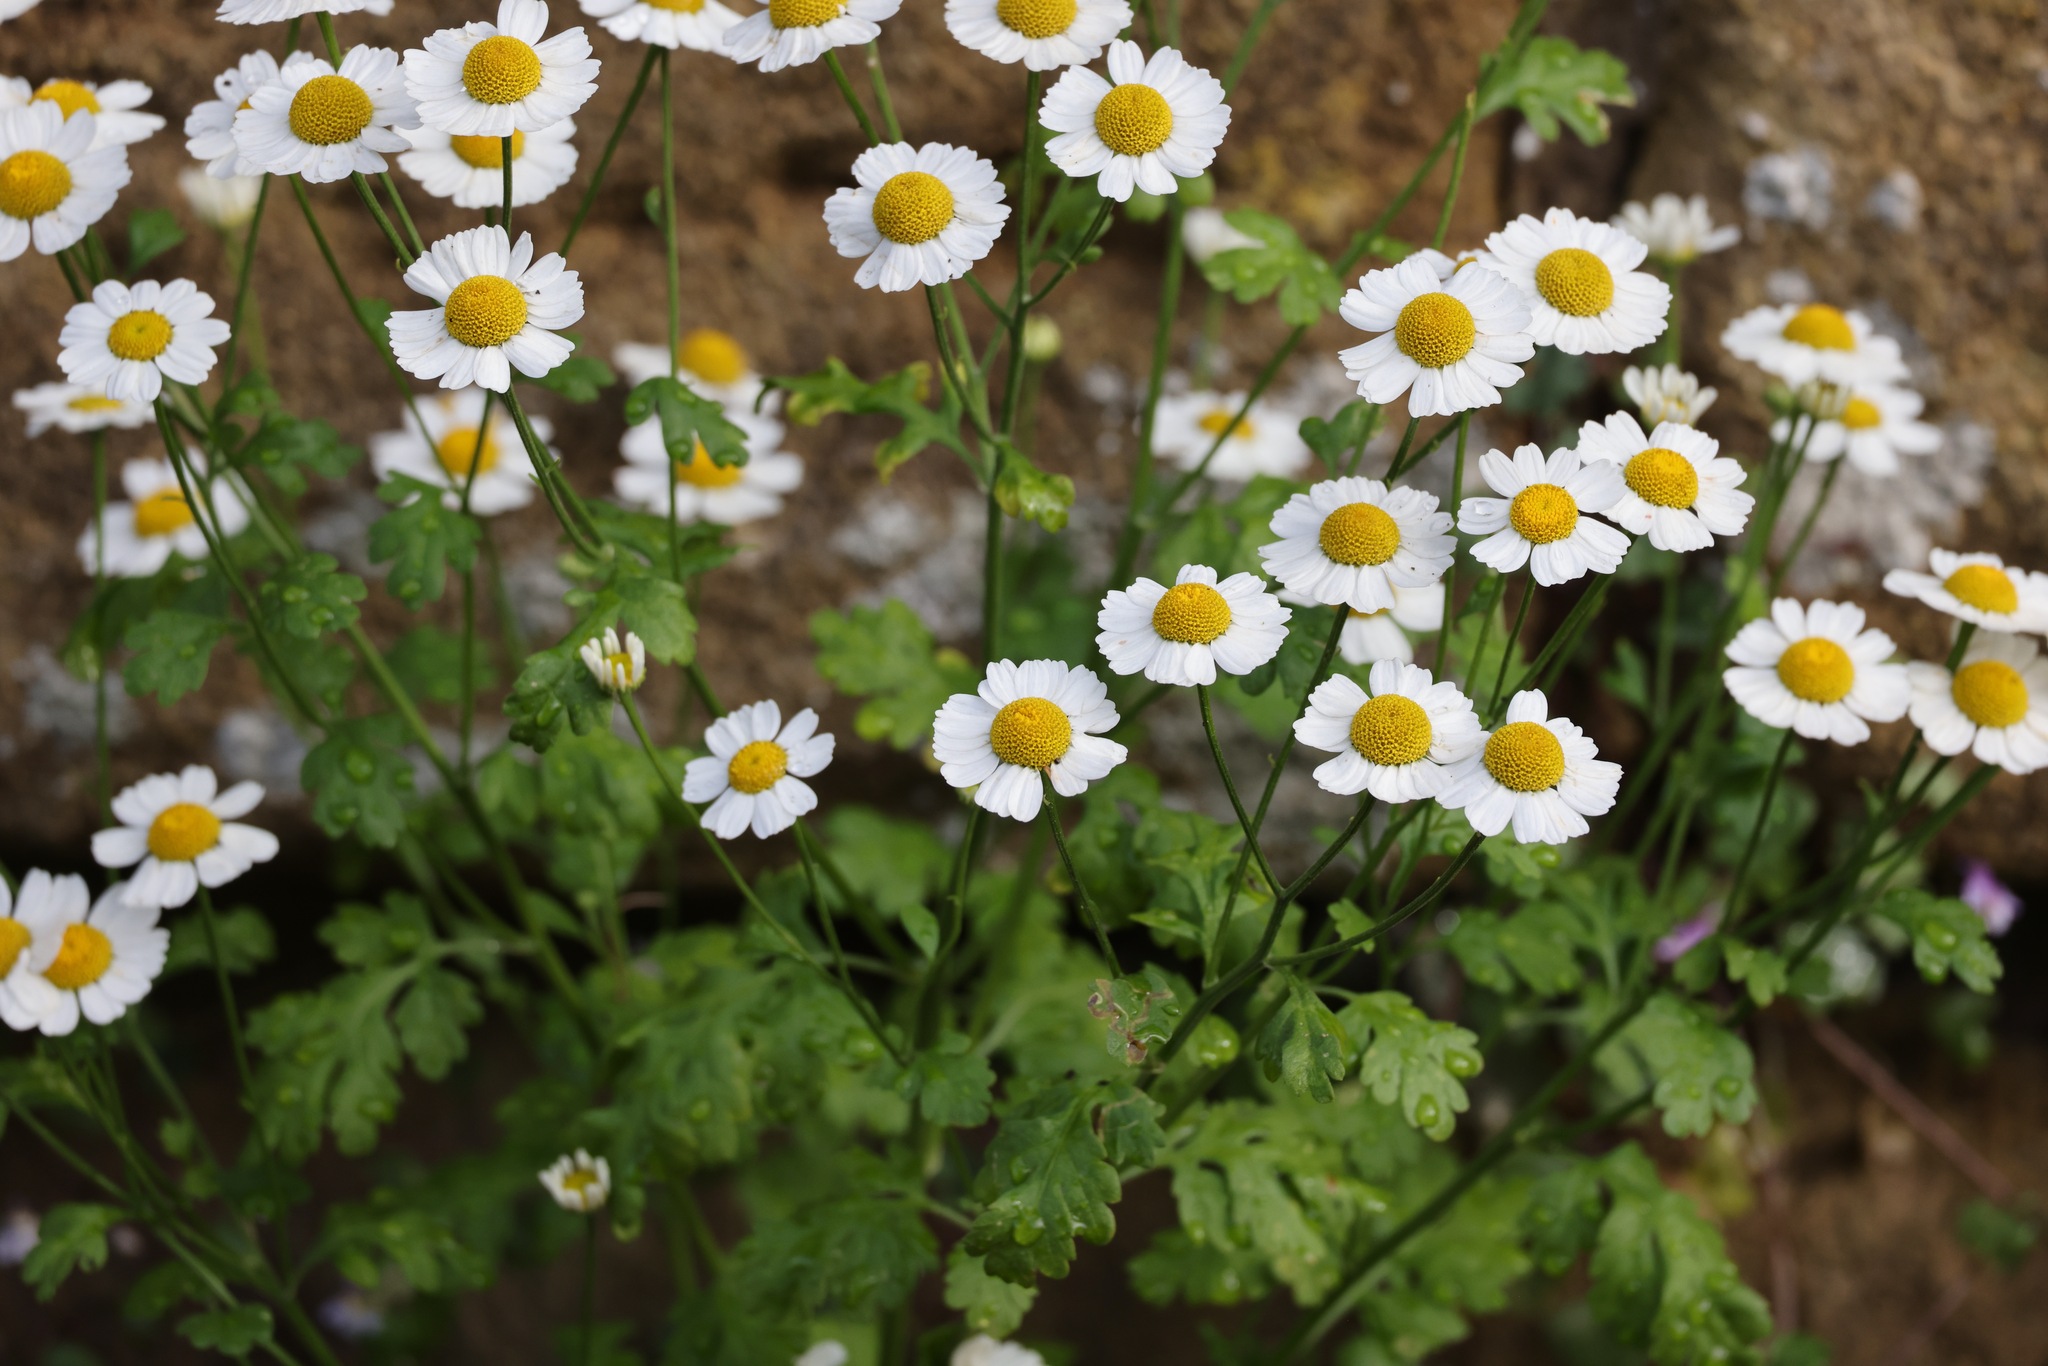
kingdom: Plantae
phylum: Tracheophyta
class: Magnoliopsida
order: Asterales
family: Asteraceae
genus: Tanacetum
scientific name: Tanacetum parthenium
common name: Feverfew
